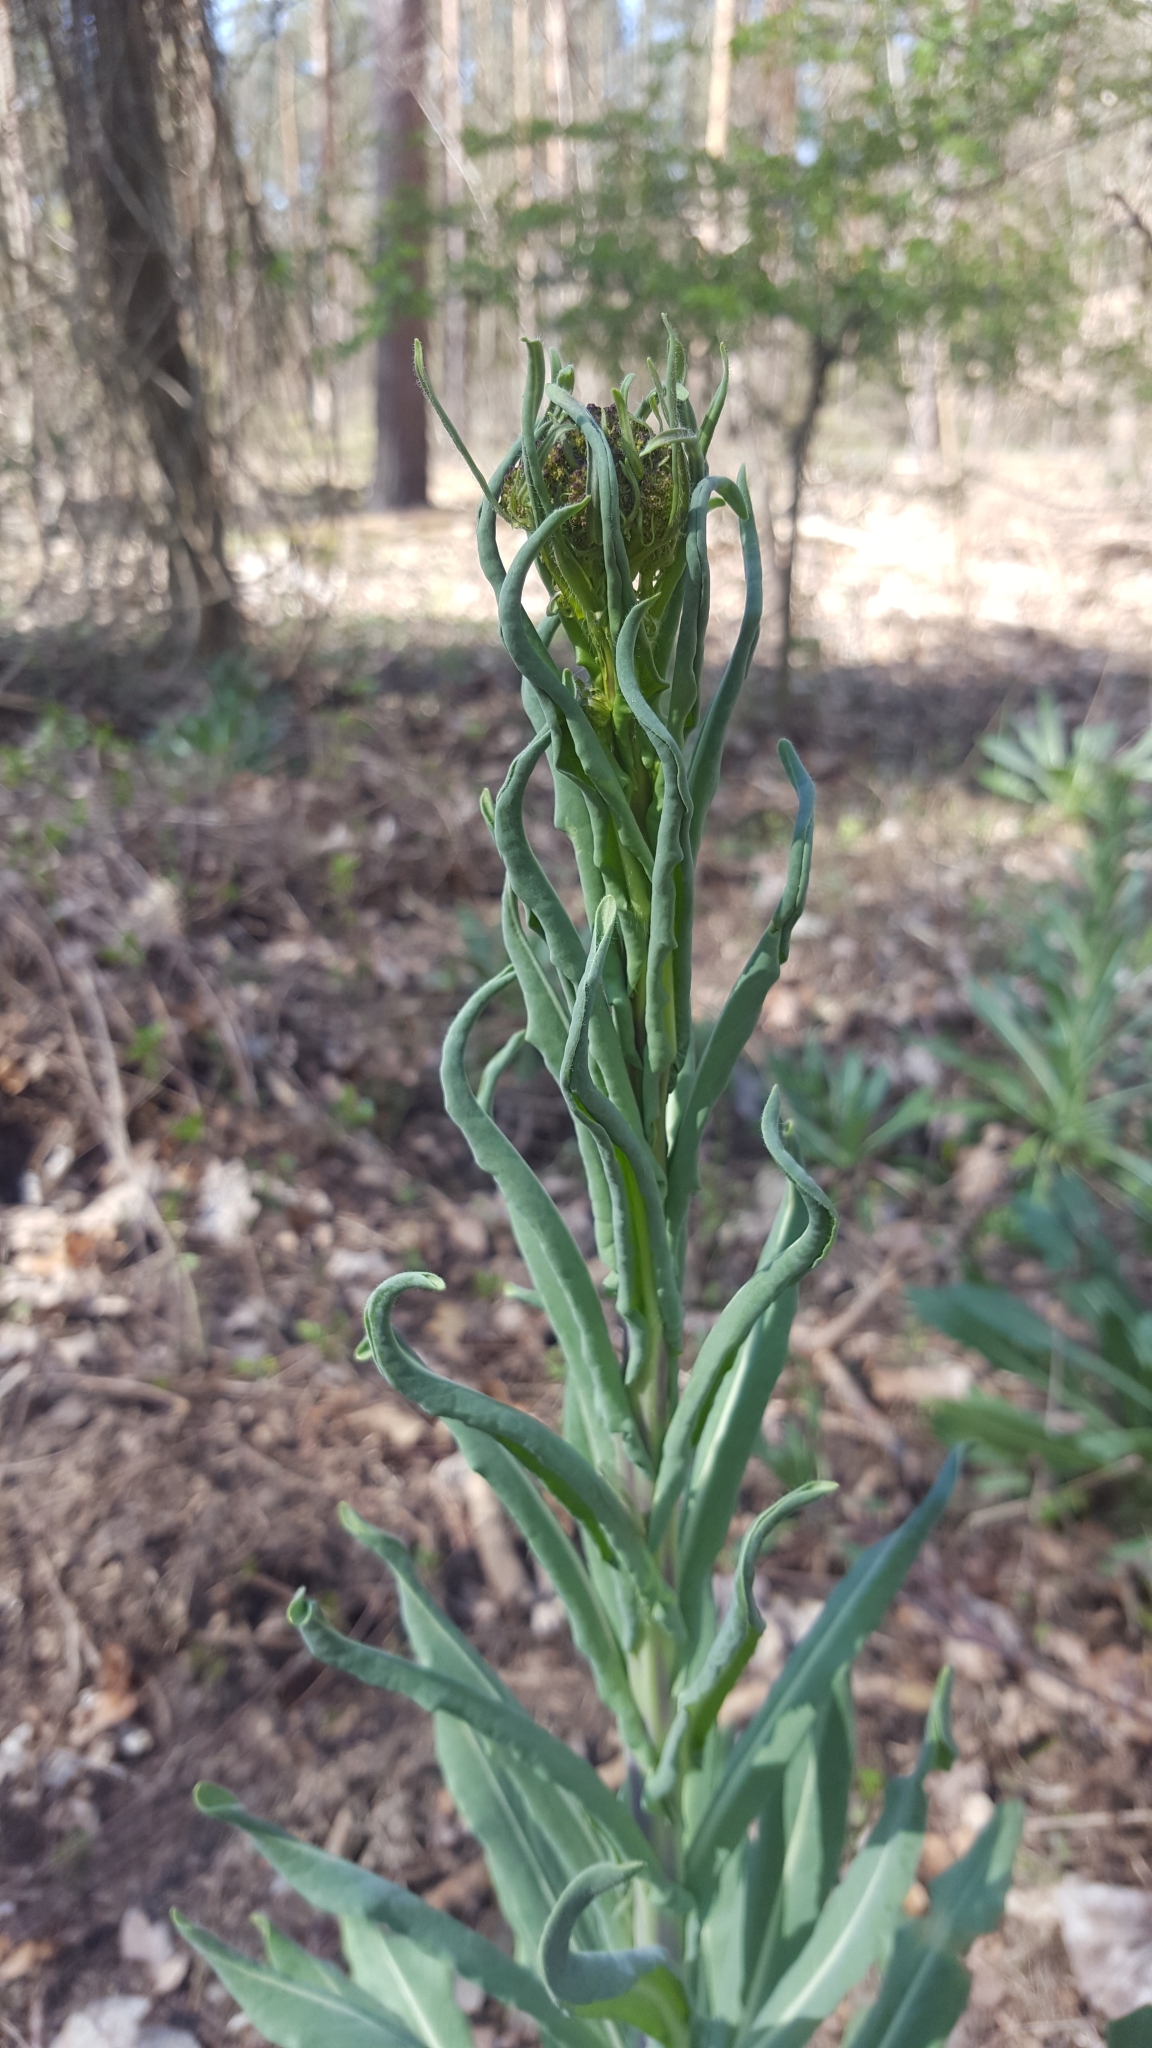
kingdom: Plantae
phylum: Tracheophyta
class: Magnoliopsida
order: Brassicales
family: Brassicaceae
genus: Isatis
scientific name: Isatis tinctoria
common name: Woad
